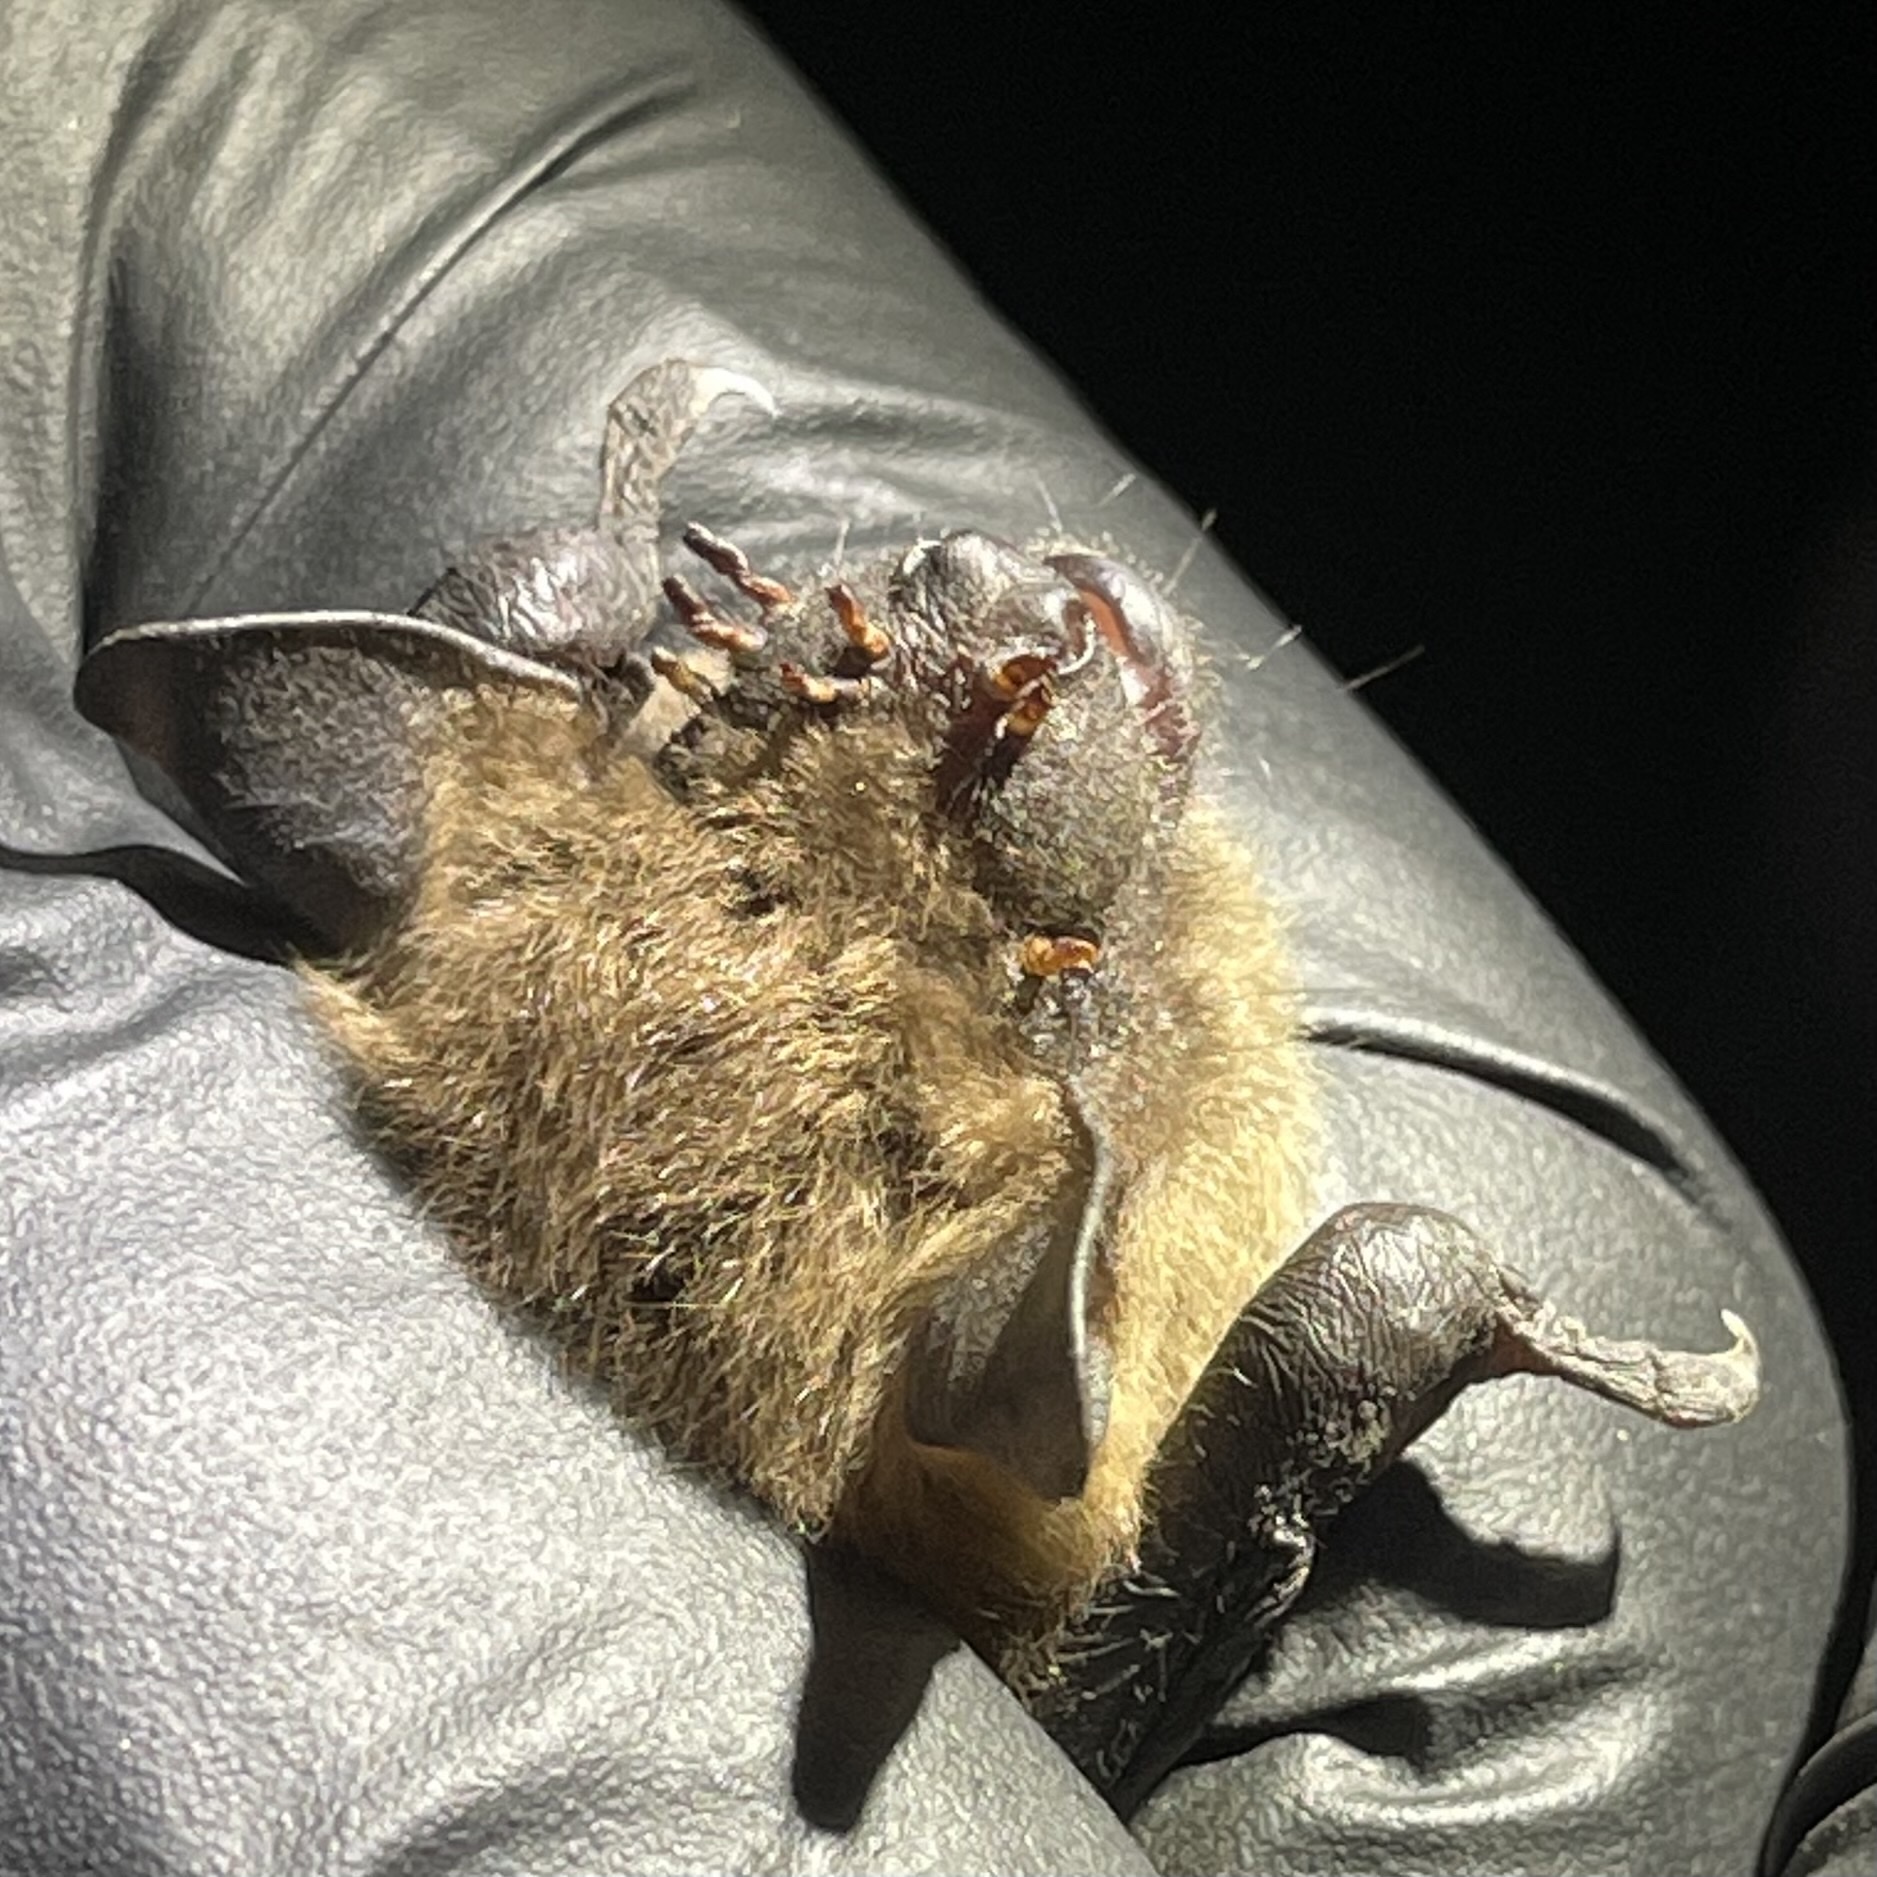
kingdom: Animalia
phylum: Chordata
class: Mammalia
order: Chiroptera
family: Vespertilionidae
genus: Eptesicus
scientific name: Eptesicus fuscus
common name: Big brown bat
